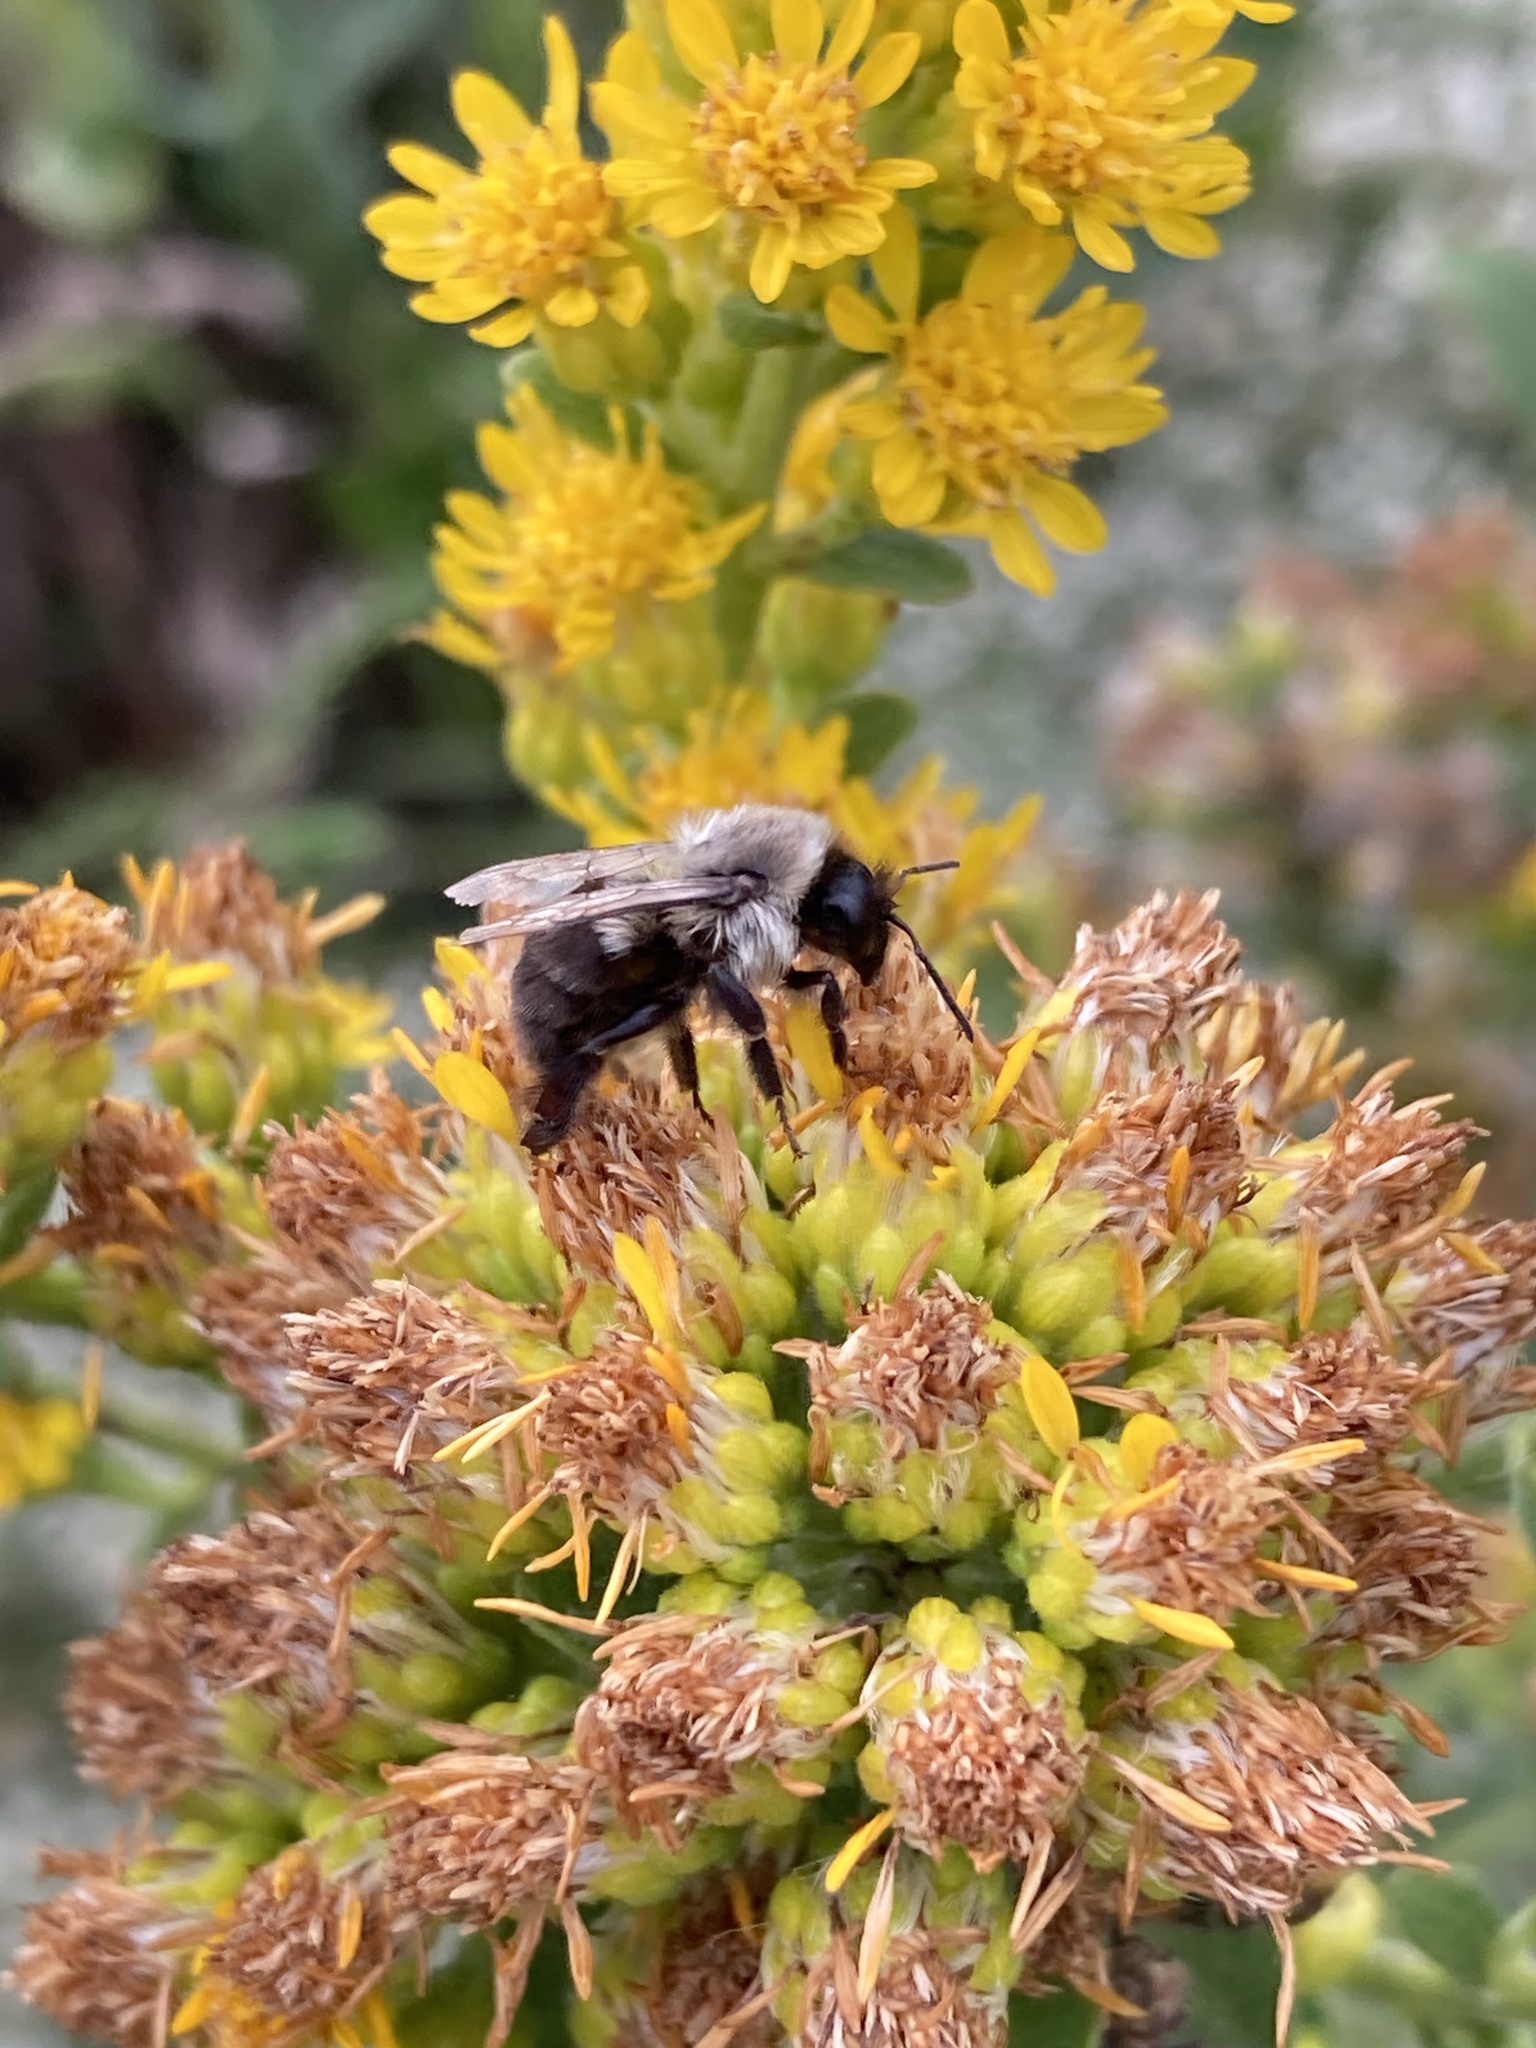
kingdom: Animalia
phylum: Arthropoda
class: Insecta
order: Hymenoptera
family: Apidae
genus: Bombus
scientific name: Bombus impatiens
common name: Common eastern bumble bee
